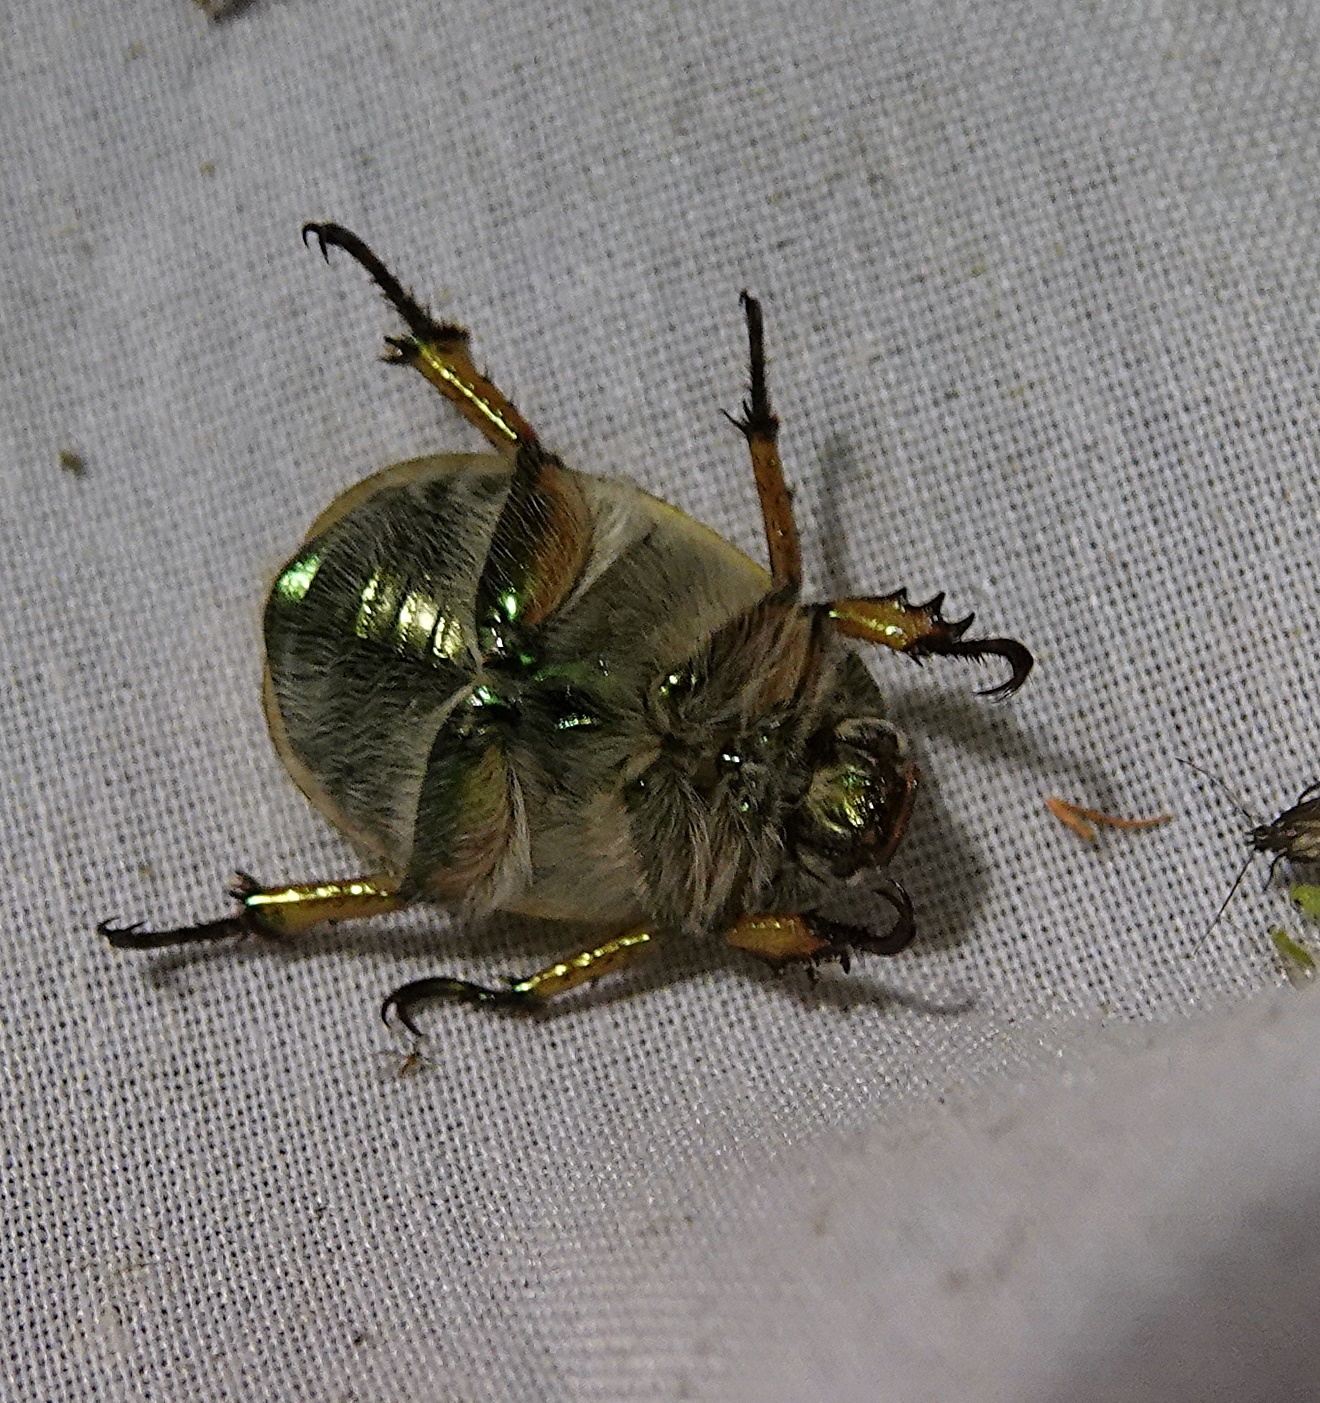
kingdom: Animalia
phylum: Arthropoda
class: Insecta
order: Coleoptera
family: Scarabaeidae
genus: Cotalpa
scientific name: Cotalpa lanigera
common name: Goldsmith beetle
